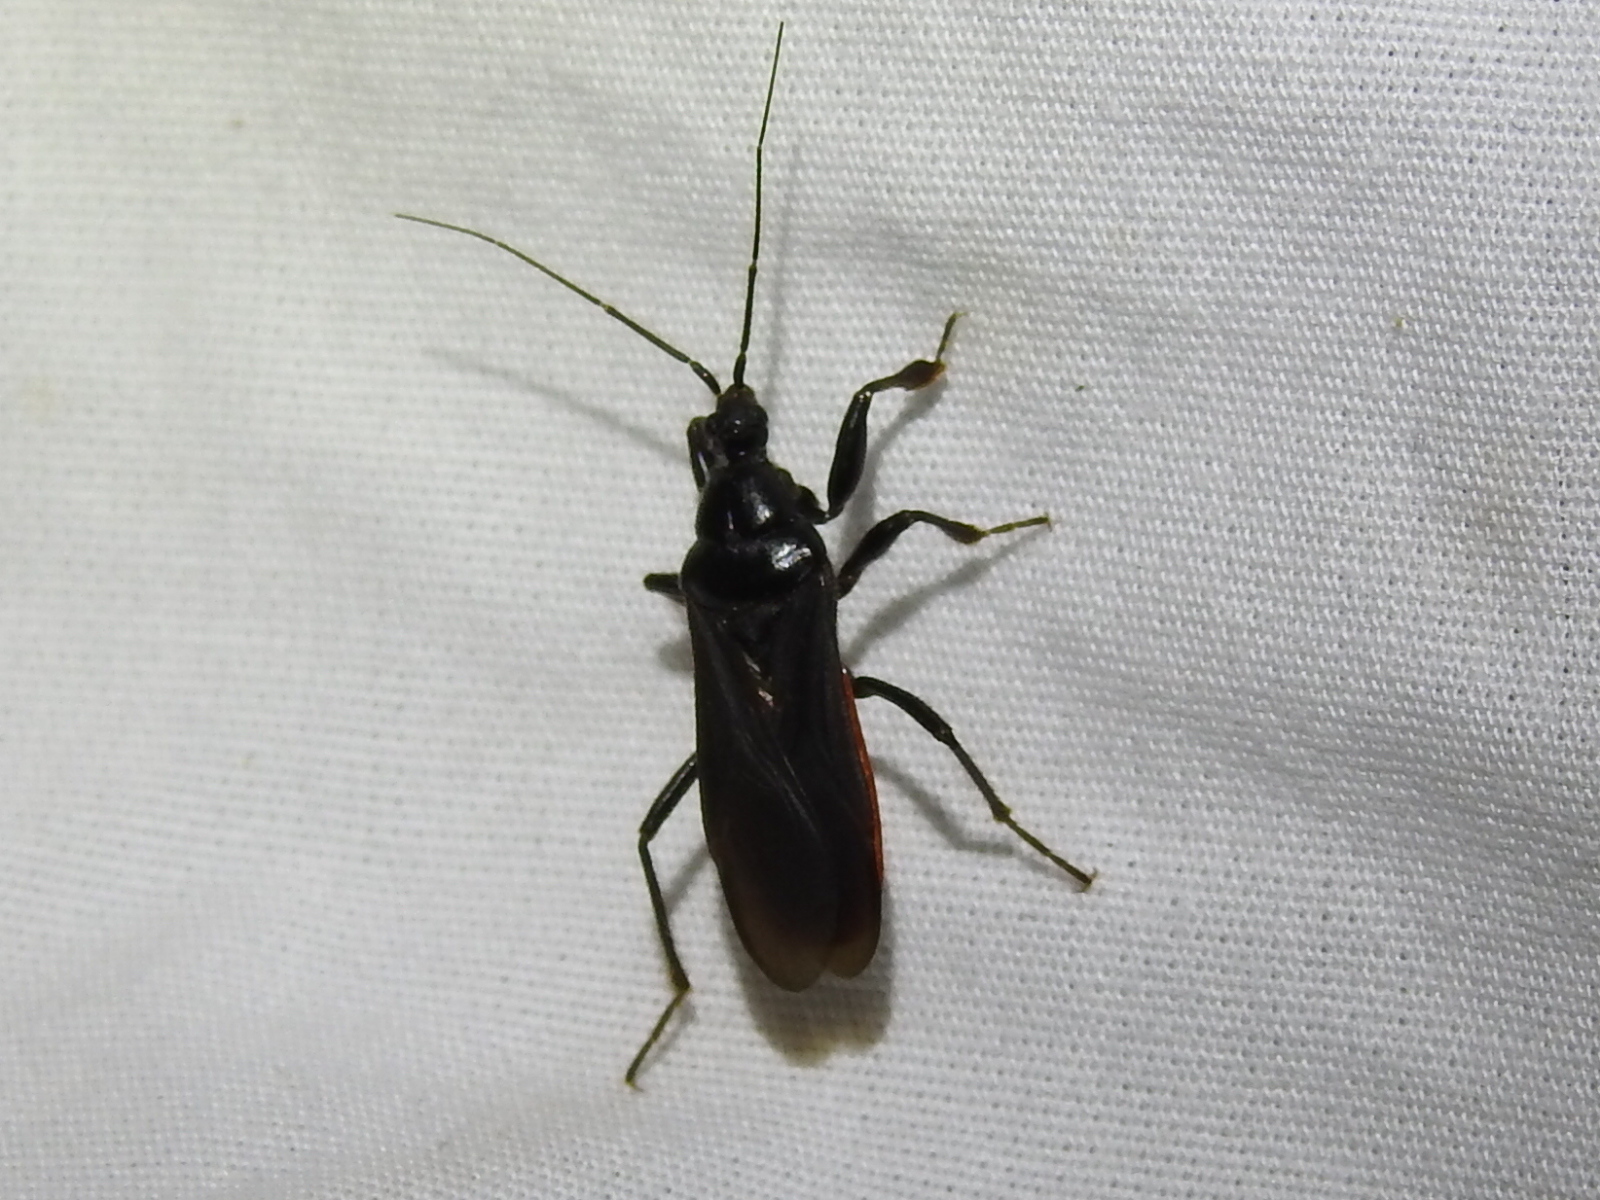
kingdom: Animalia
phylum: Arthropoda
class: Insecta
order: Hemiptera
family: Reduviidae
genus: Melanolestes
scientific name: Melanolestes picipes
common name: Assassin bug
